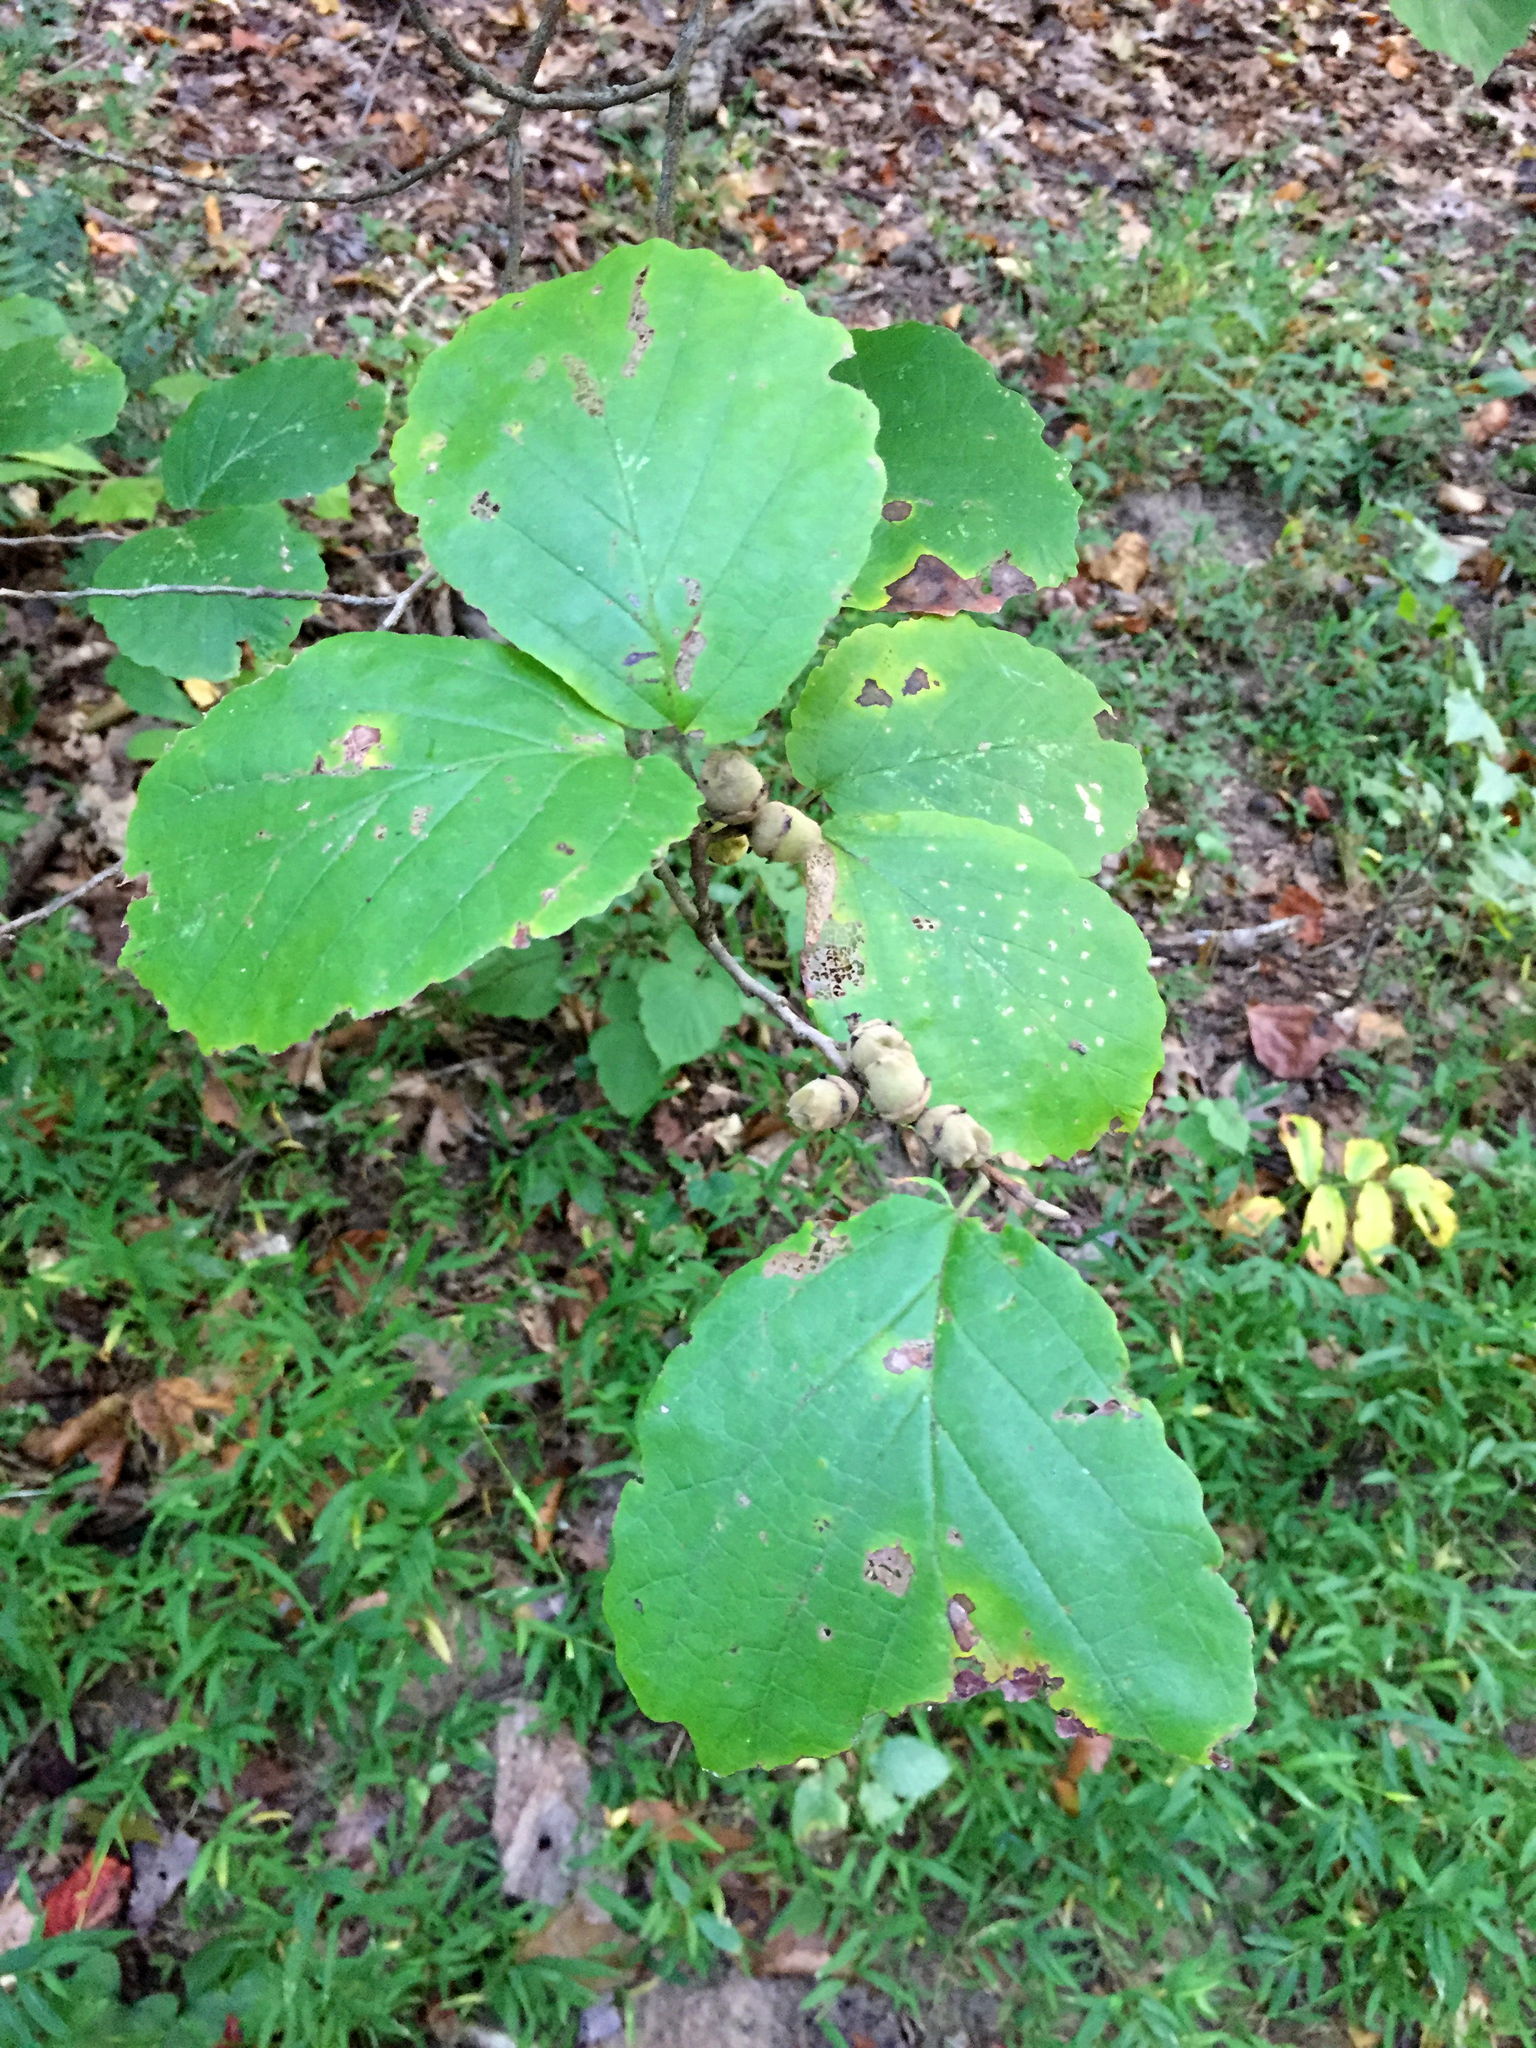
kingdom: Plantae
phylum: Tracheophyta
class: Magnoliopsida
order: Saxifragales
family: Hamamelidaceae
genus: Hamamelis
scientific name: Hamamelis virginiana
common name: Witch-hazel
